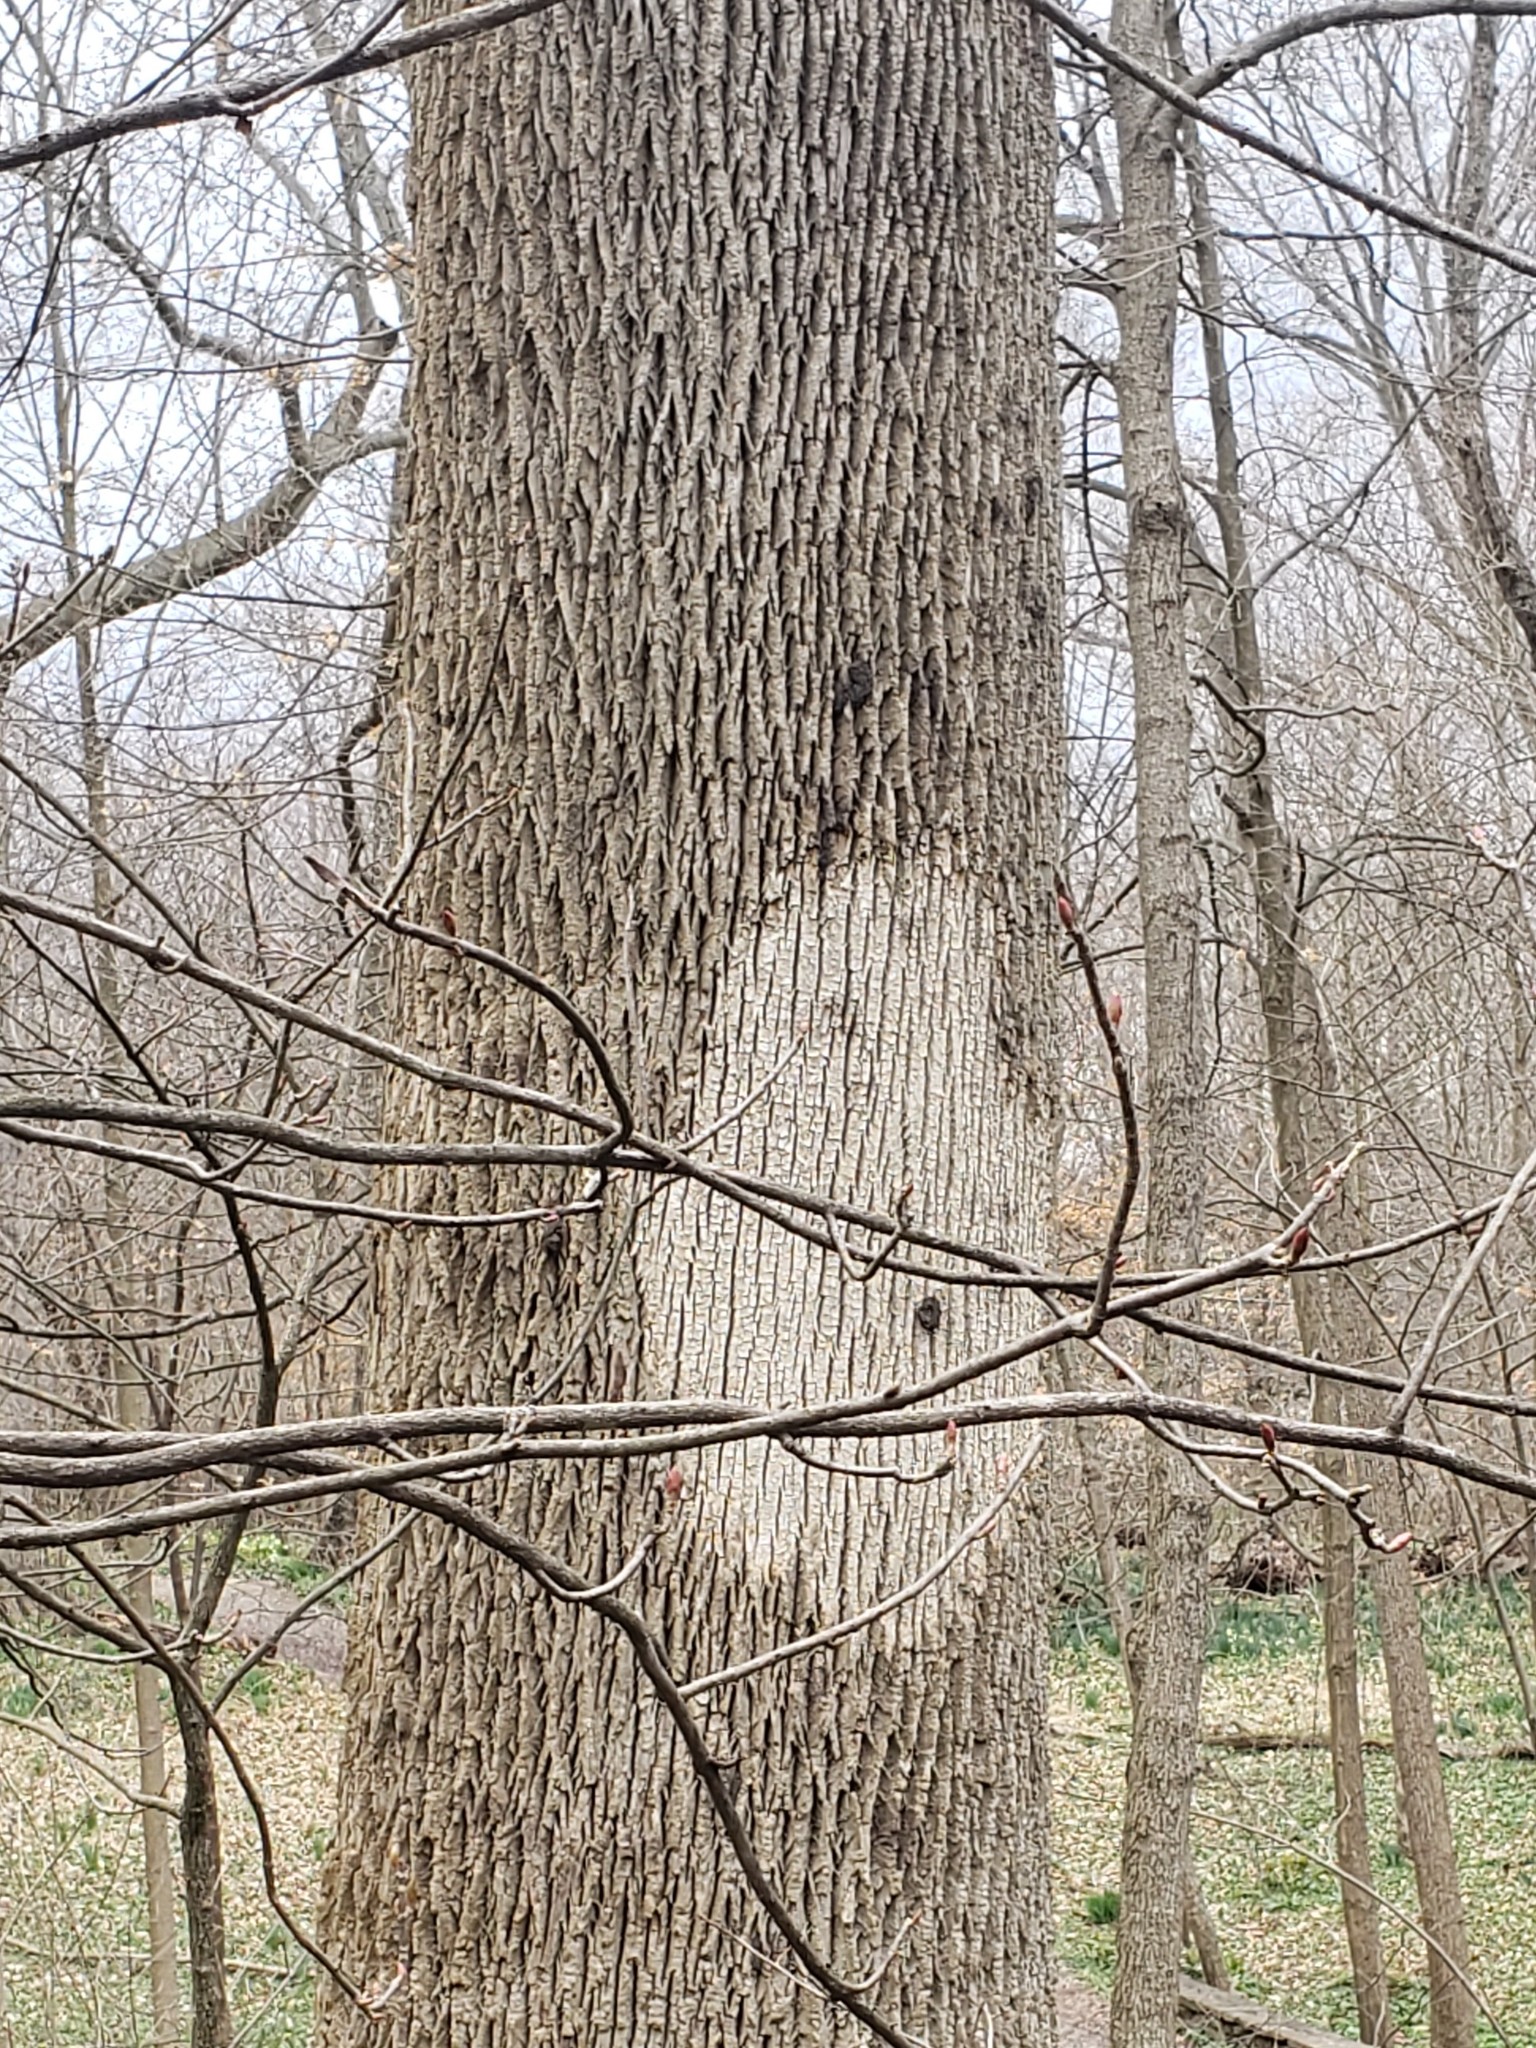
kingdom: Fungi
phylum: Basidiomycota
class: Agaricomycetes
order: Russulales
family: Stereaceae
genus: Acanthophysium
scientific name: Acanthophysium oakesii
